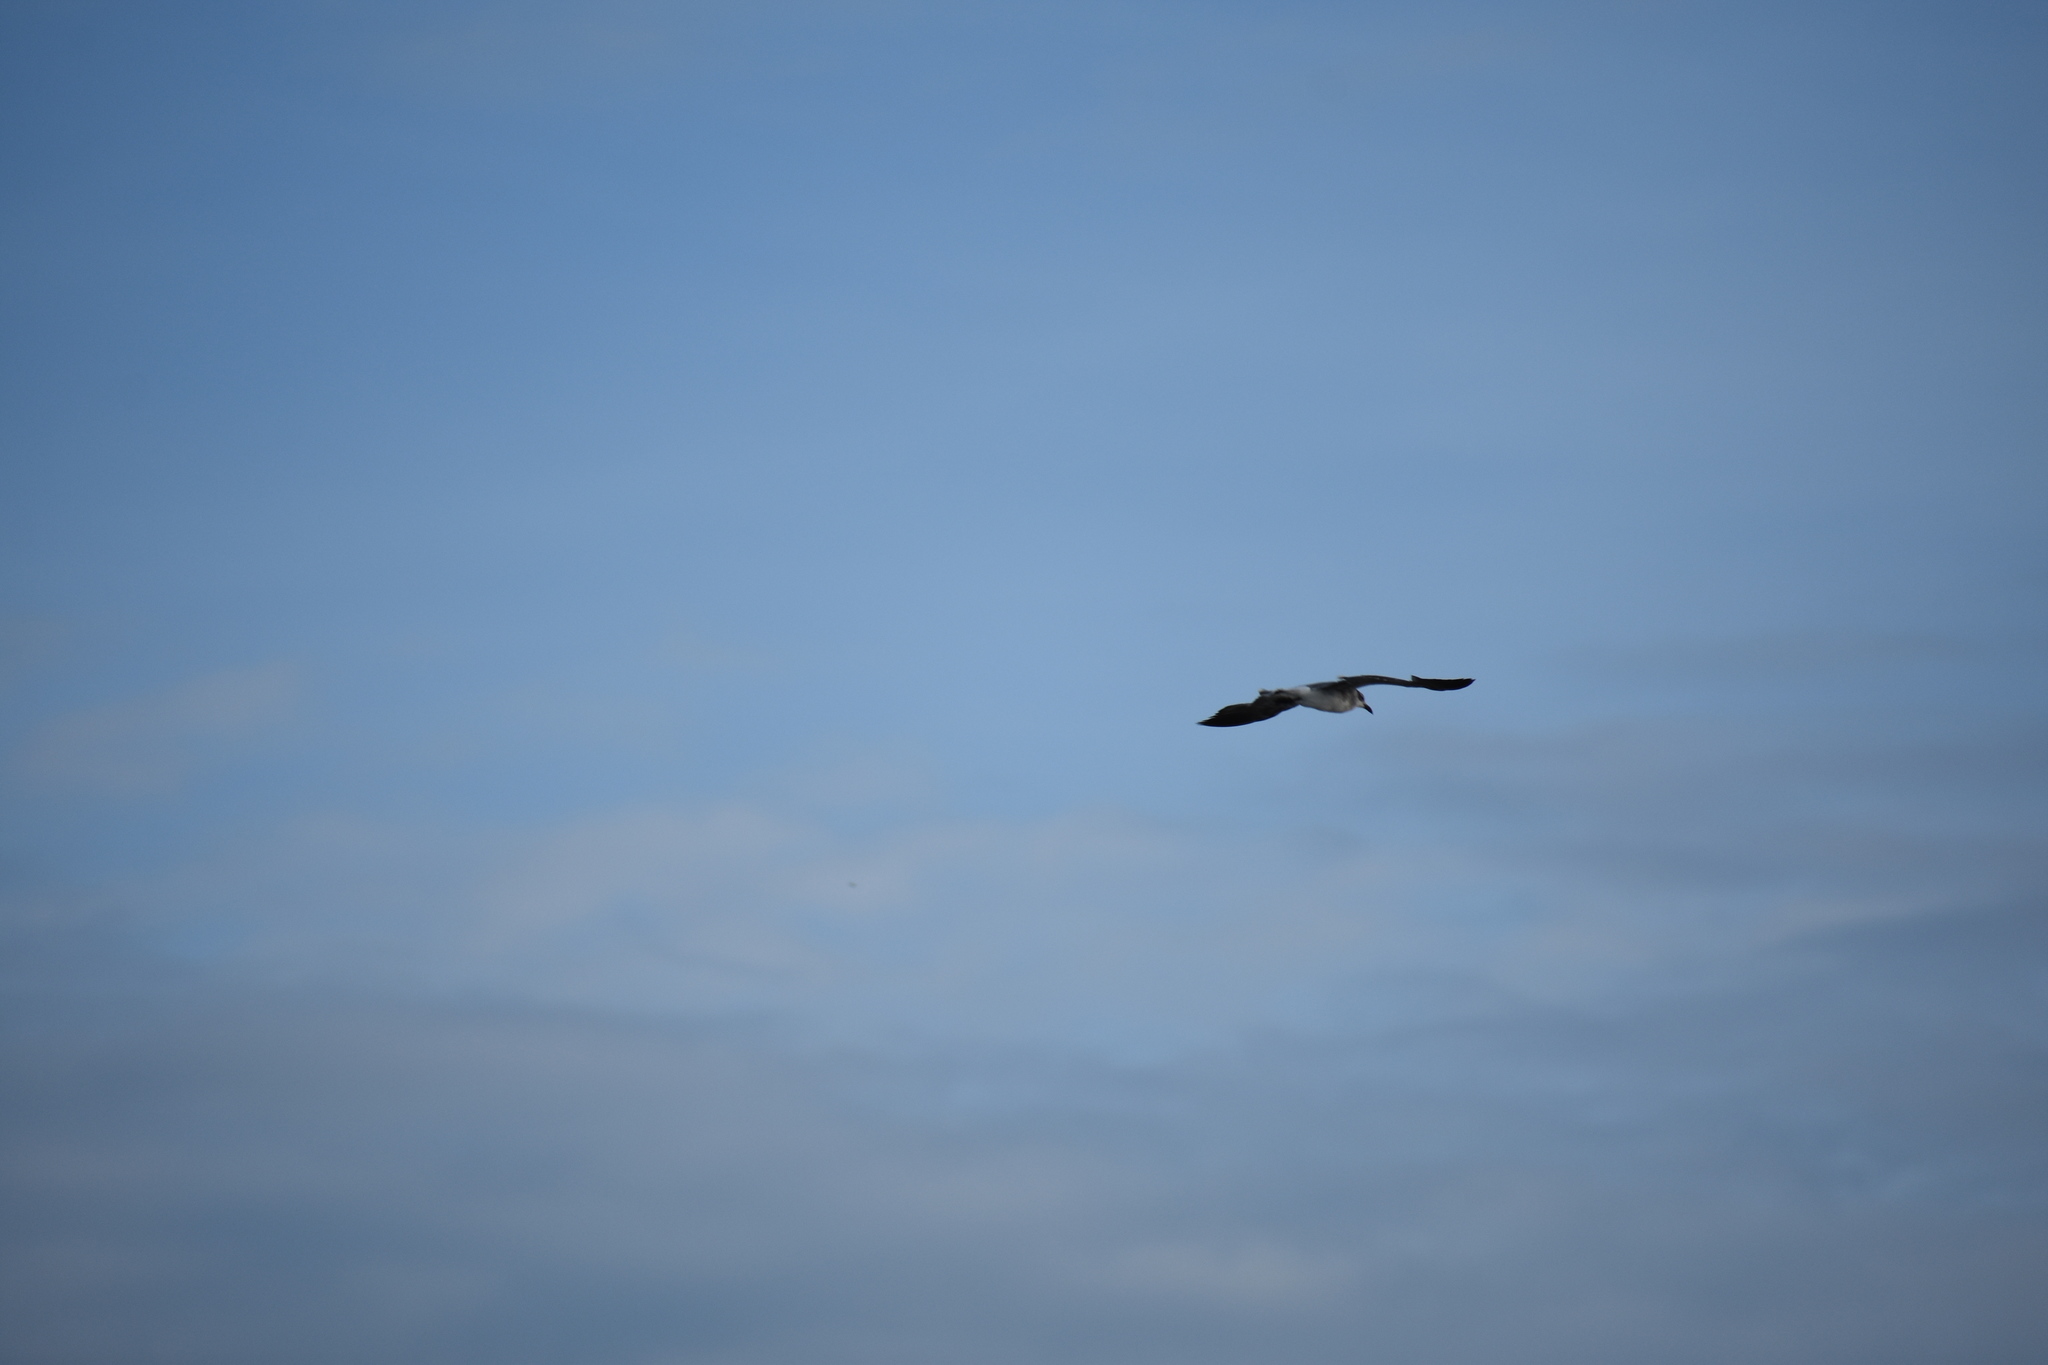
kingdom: Animalia
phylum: Chordata
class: Aves
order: Charadriiformes
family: Laridae
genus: Leucophaeus
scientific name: Leucophaeus atricilla
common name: Laughing gull
